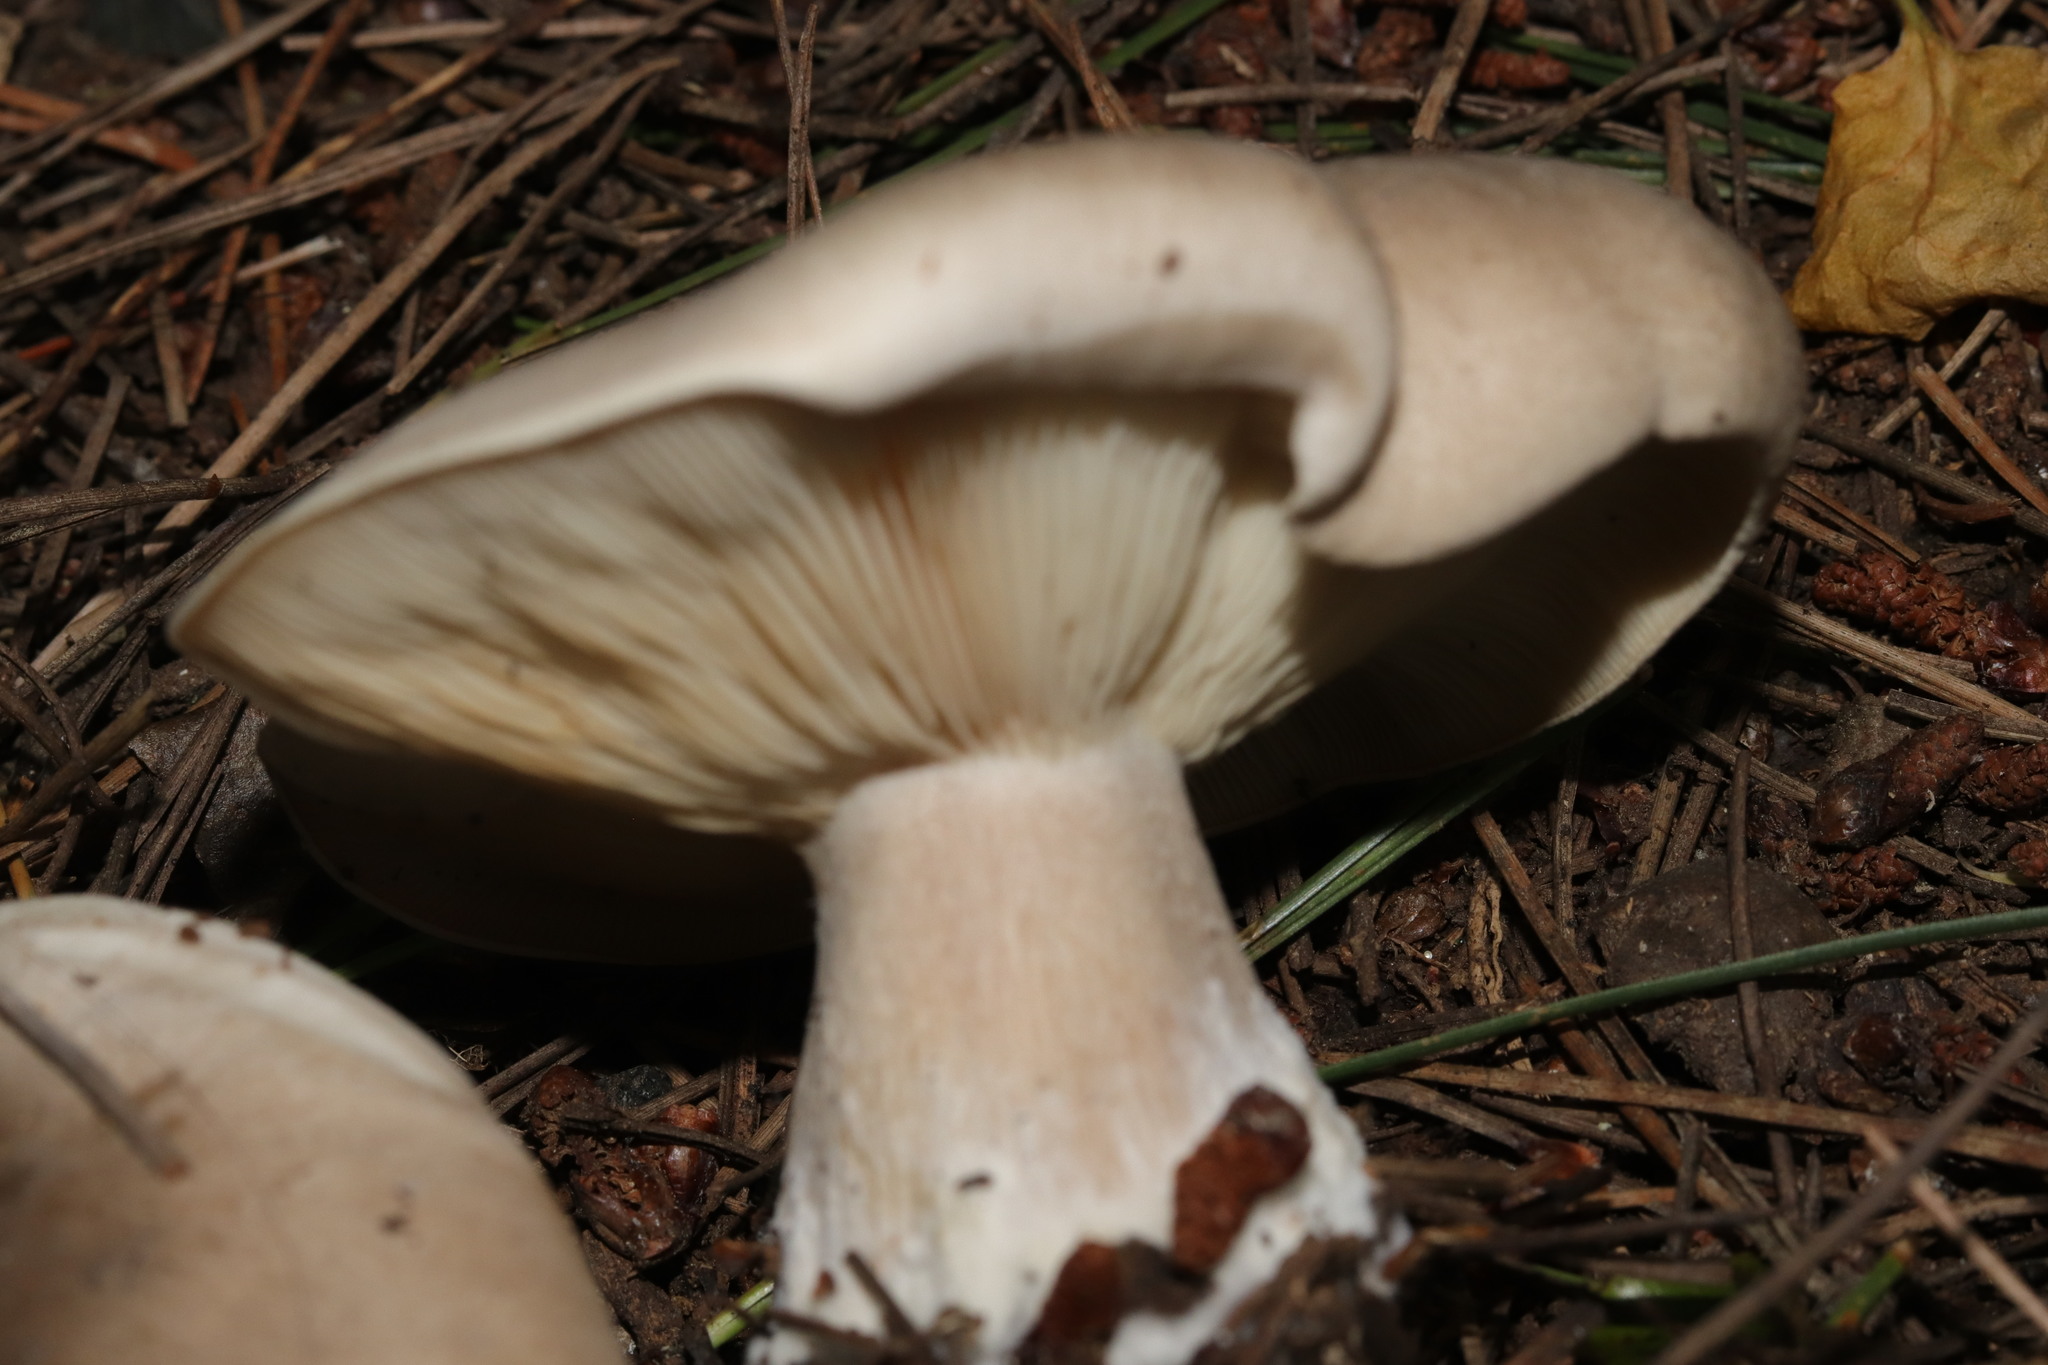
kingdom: Fungi
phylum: Basidiomycota
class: Agaricomycetes
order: Agaricales
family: Tricholomataceae
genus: Clitocybe
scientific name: Clitocybe nebularis
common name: Clouded agaric
